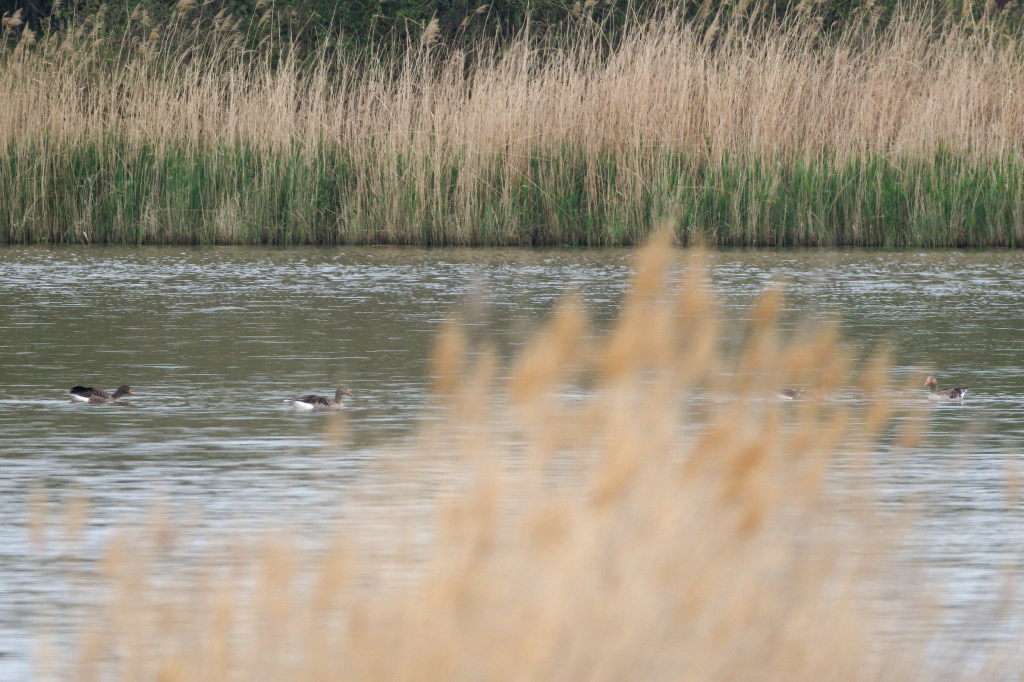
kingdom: Animalia
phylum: Chordata
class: Aves
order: Anseriformes
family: Anatidae
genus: Anser
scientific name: Anser anser
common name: Greylag goose
